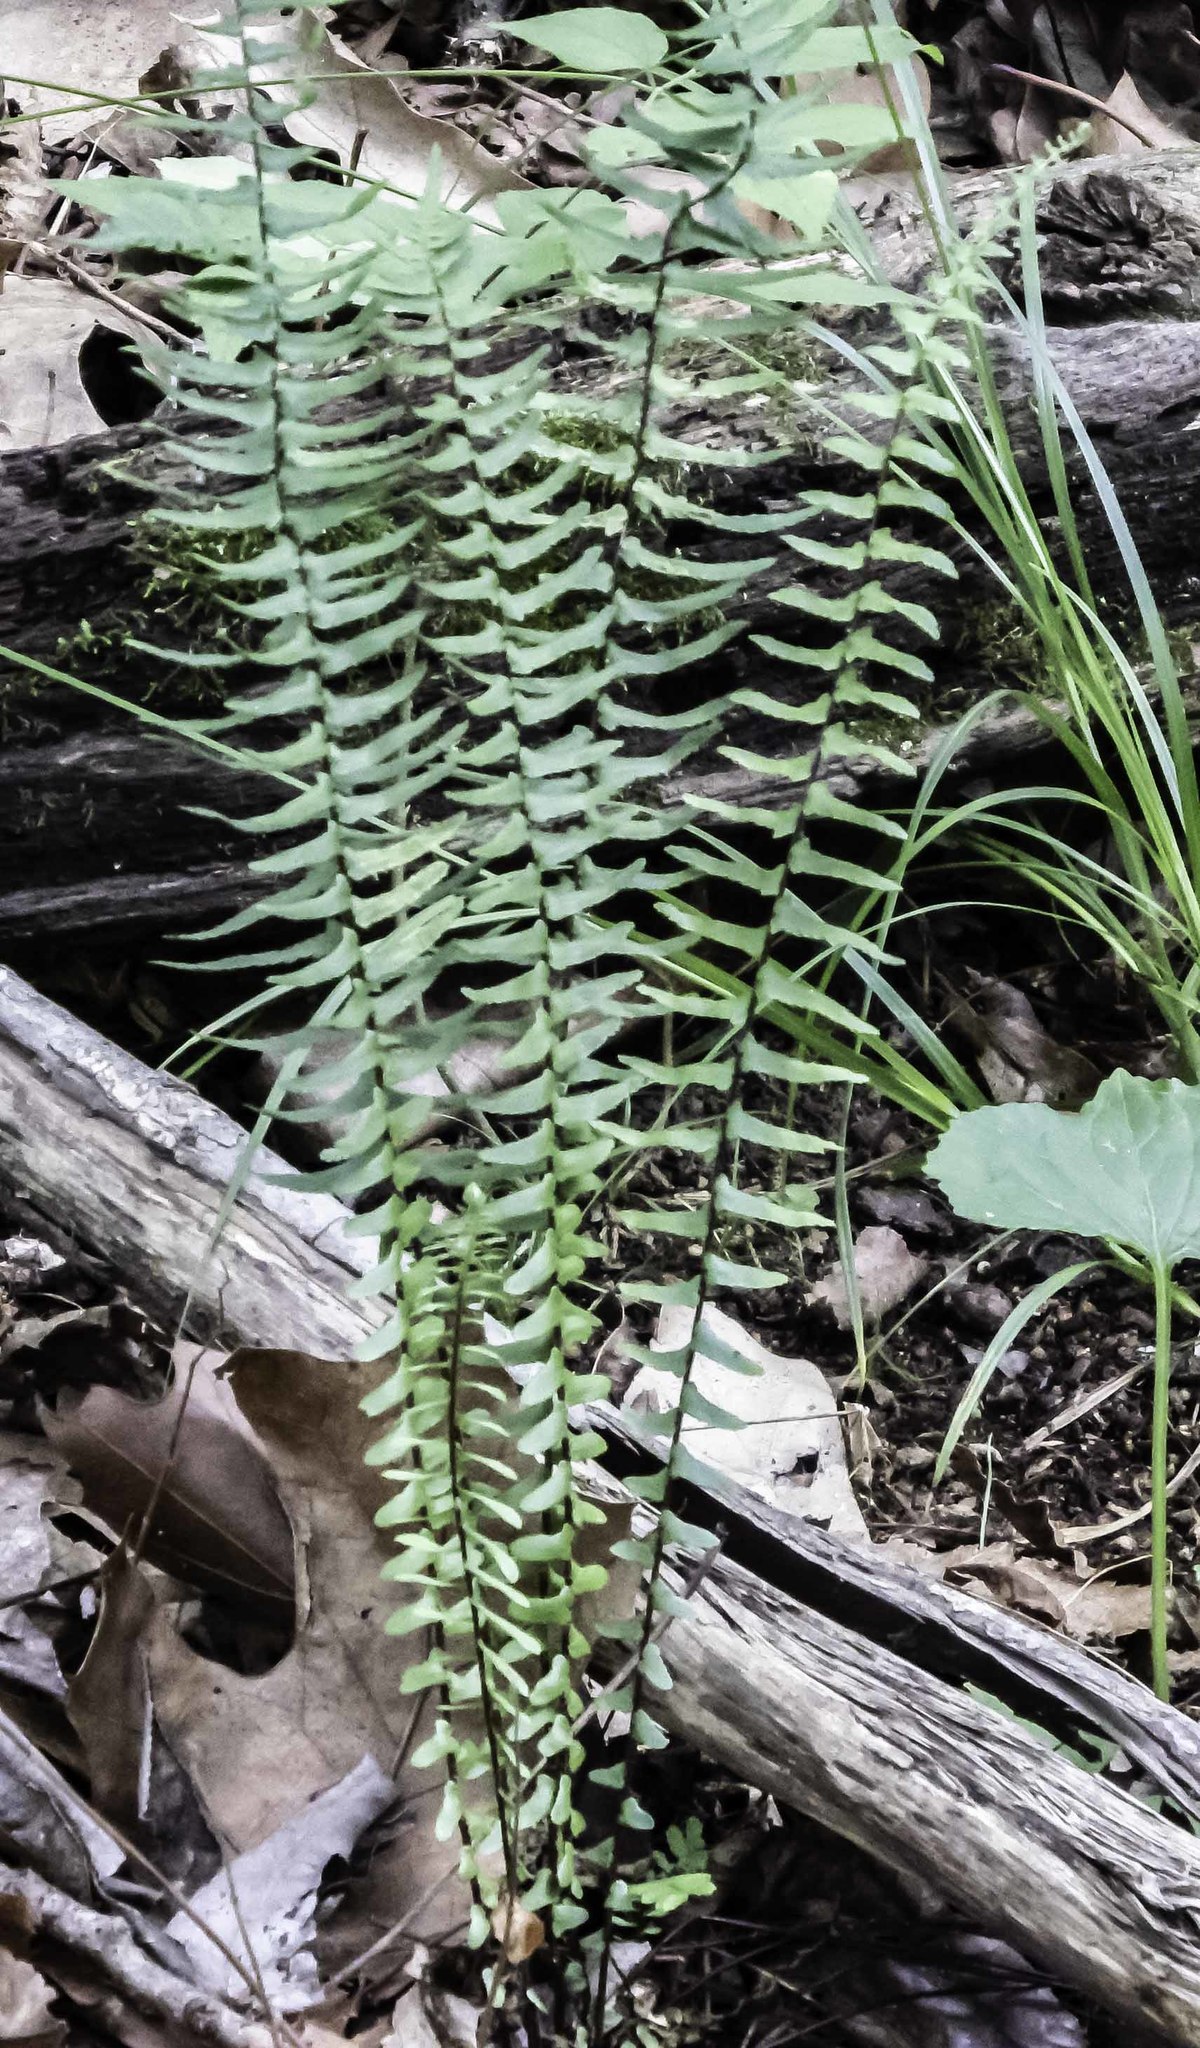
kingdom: Plantae
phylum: Tracheophyta
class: Polypodiopsida
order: Polypodiales
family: Aspleniaceae
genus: Asplenium
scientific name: Asplenium platyneuron
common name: Ebony spleenwort
